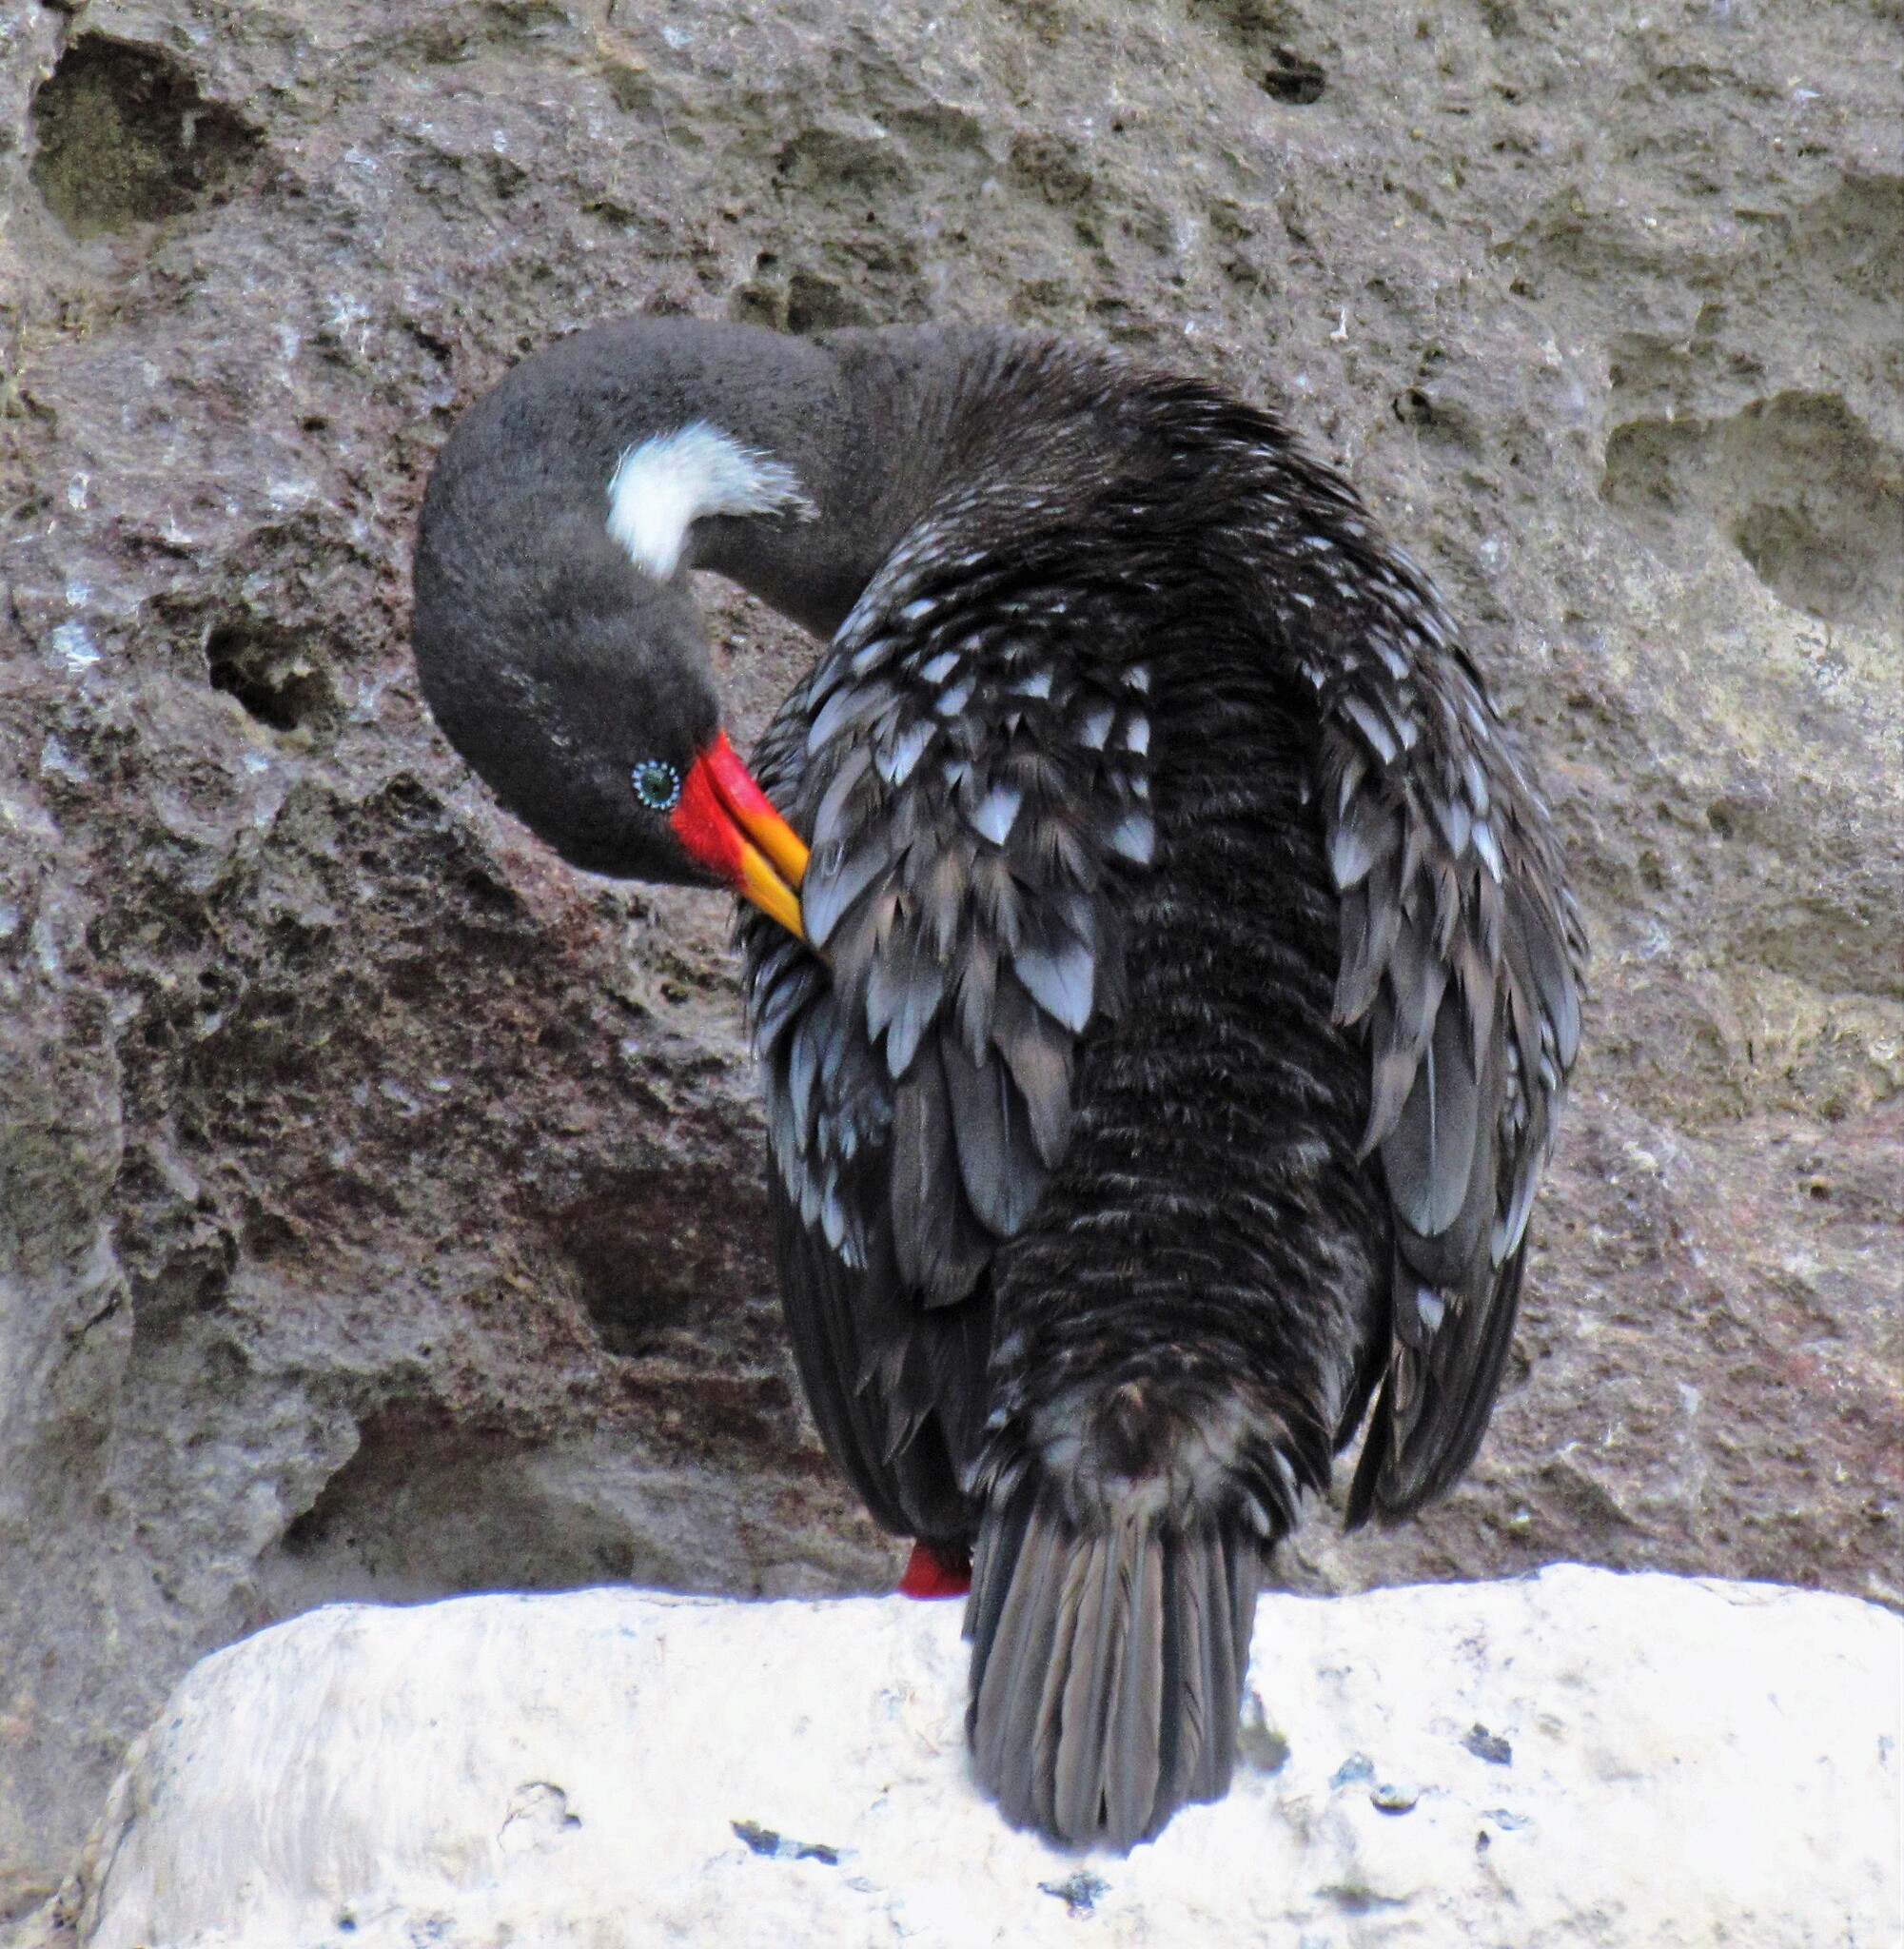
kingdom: Animalia
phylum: Chordata
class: Aves
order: Suliformes
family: Phalacrocoracidae
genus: Phalacrocorax
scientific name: Phalacrocorax gaimardi
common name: Red-legged cormorant
